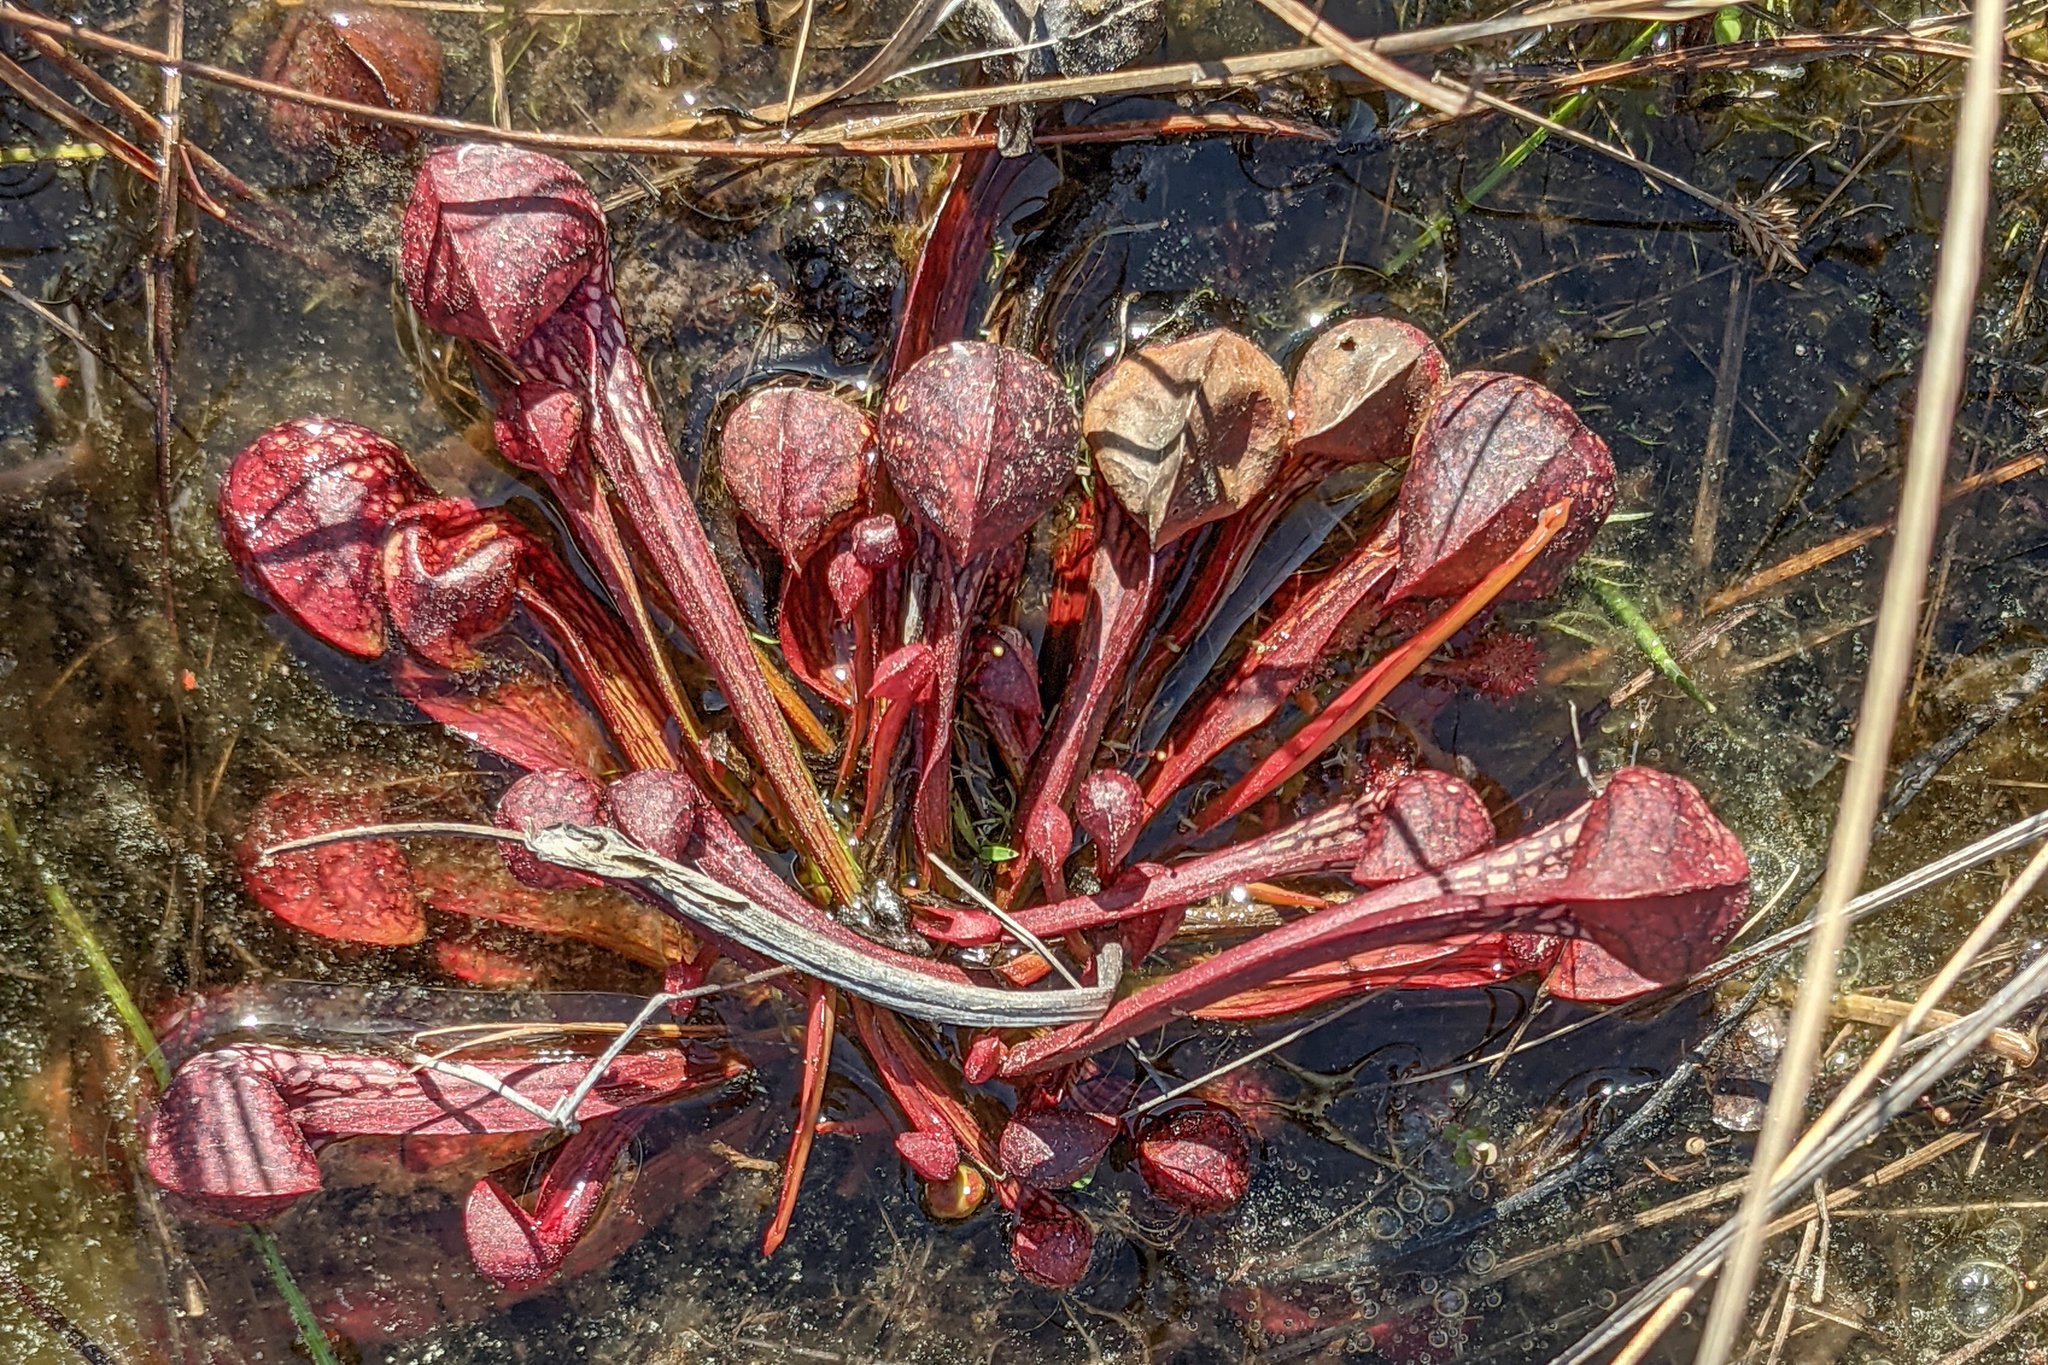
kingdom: Plantae
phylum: Tracheophyta
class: Magnoliopsida
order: Ericales
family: Sarraceniaceae
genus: Sarracenia
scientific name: Sarracenia psittacina
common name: Parrot pitcherplant
